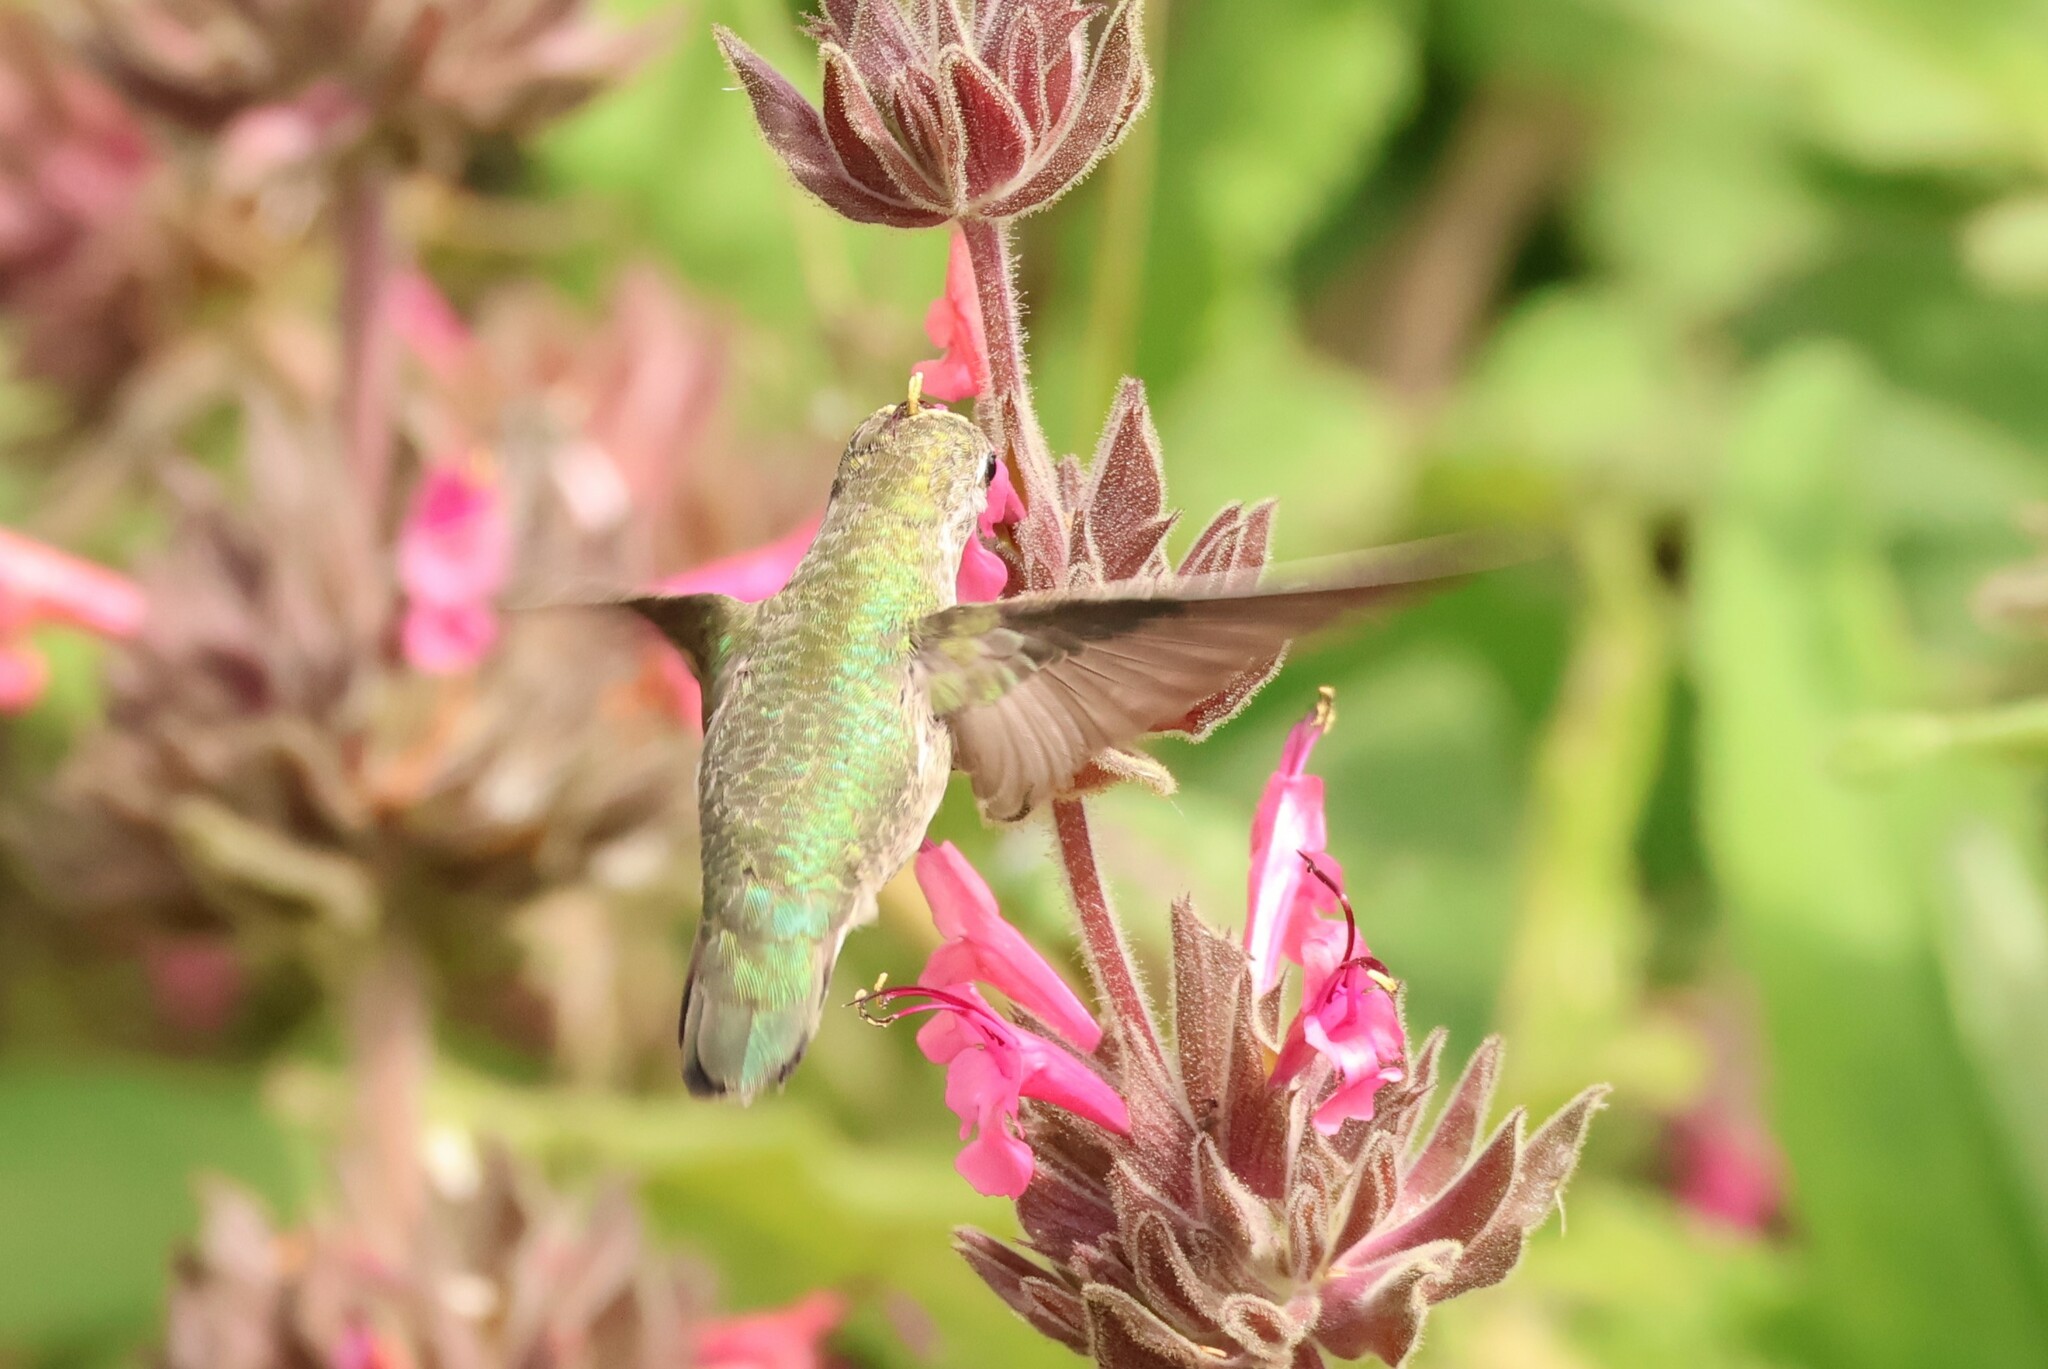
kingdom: Animalia
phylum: Chordata
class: Aves
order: Apodiformes
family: Trochilidae
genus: Calypte
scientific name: Calypte anna
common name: Anna's hummingbird
